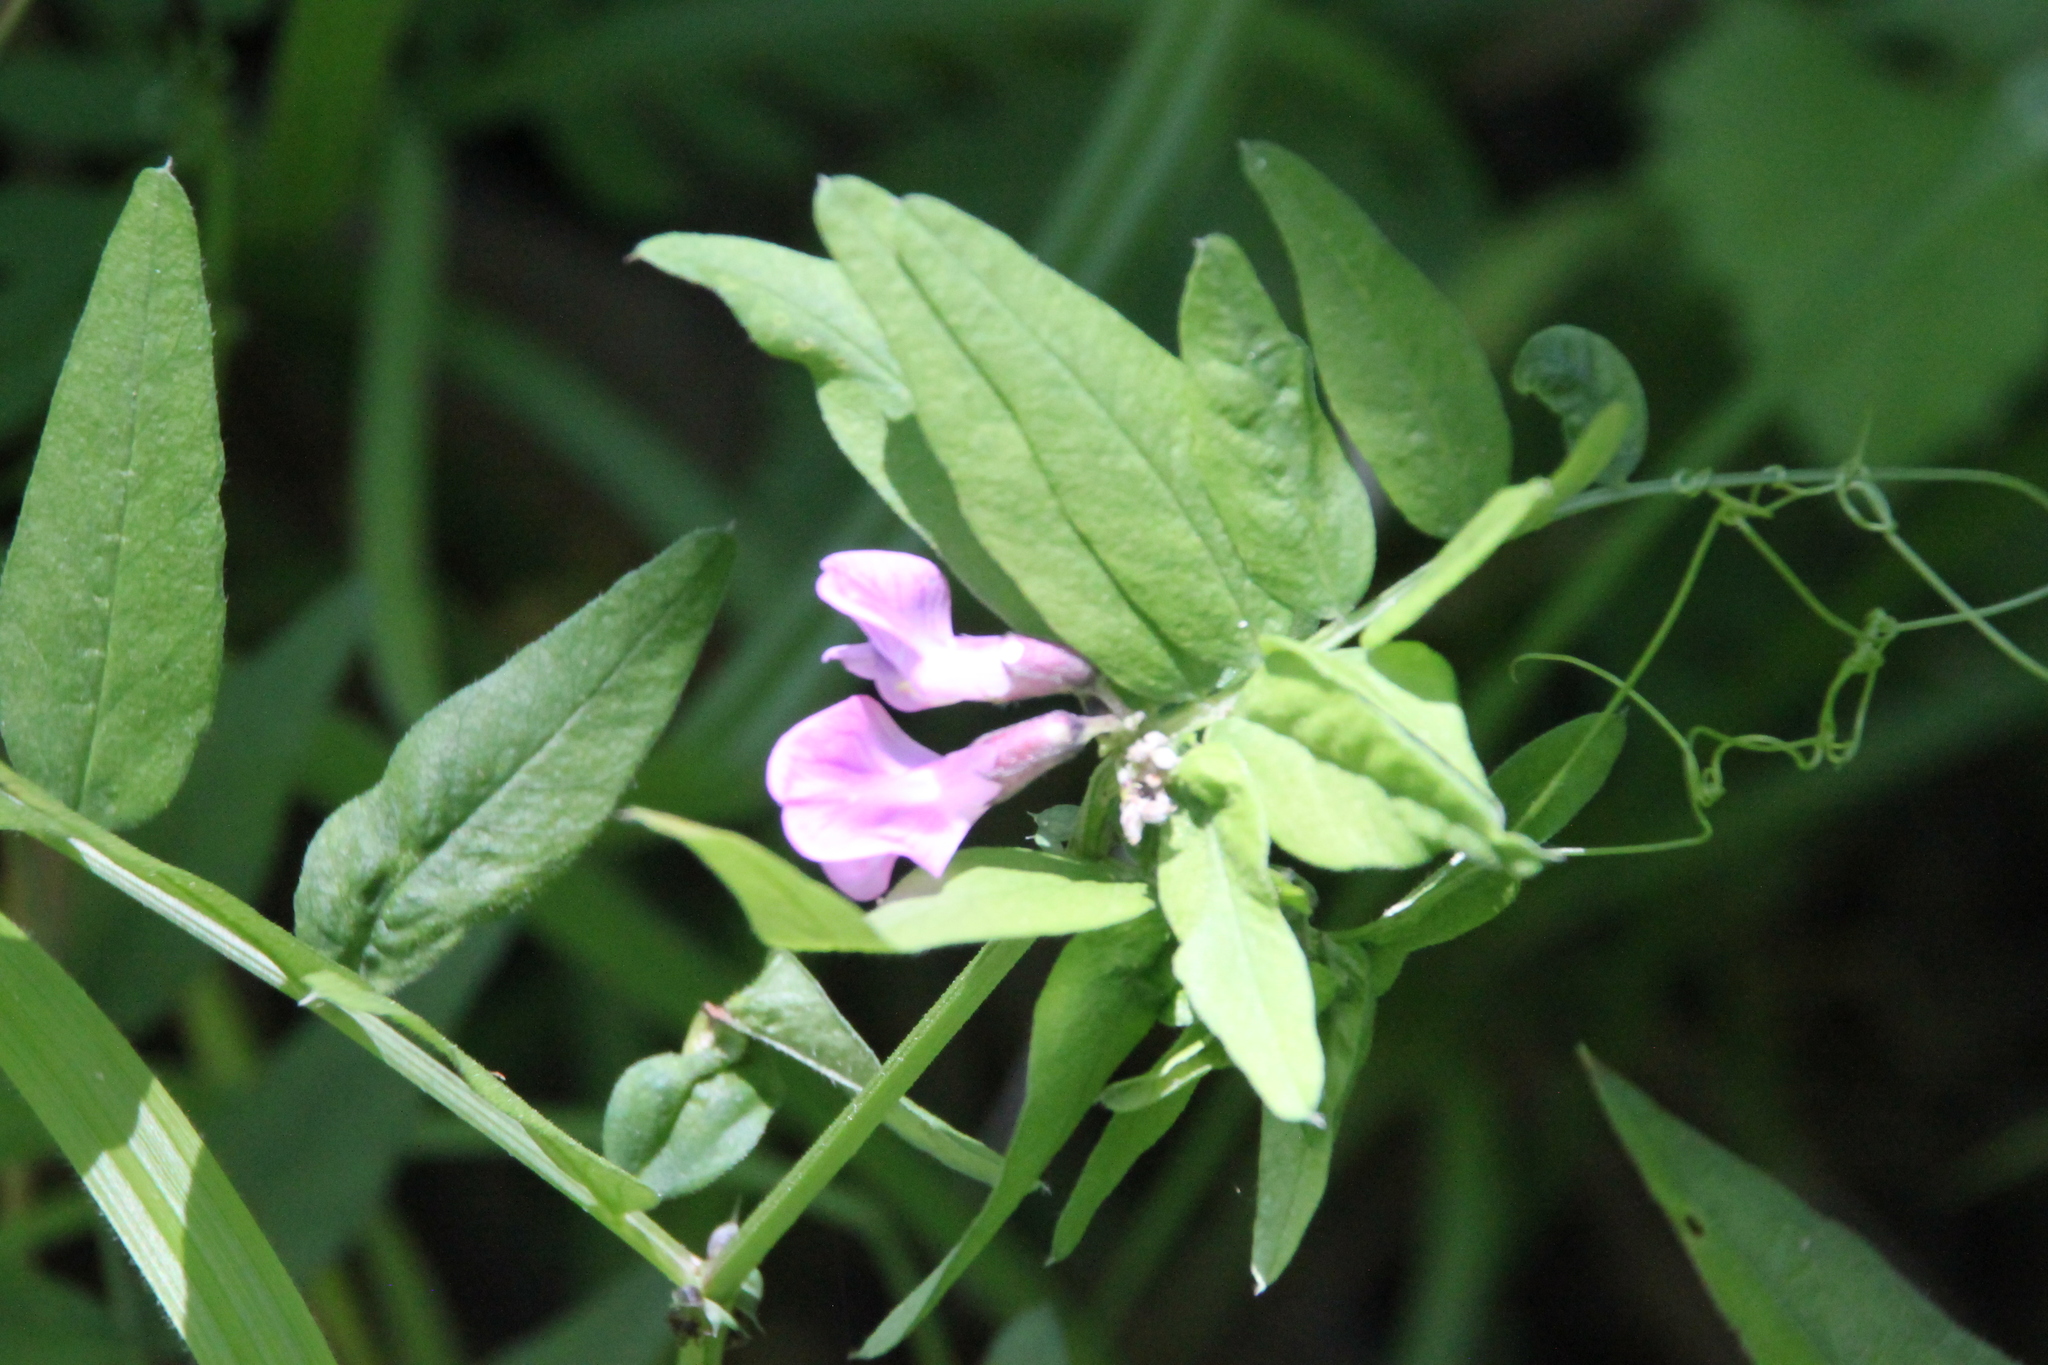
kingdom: Plantae
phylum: Tracheophyta
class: Magnoliopsida
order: Fabales
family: Fabaceae
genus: Vicia
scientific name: Vicia sepium
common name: Bush vetch
